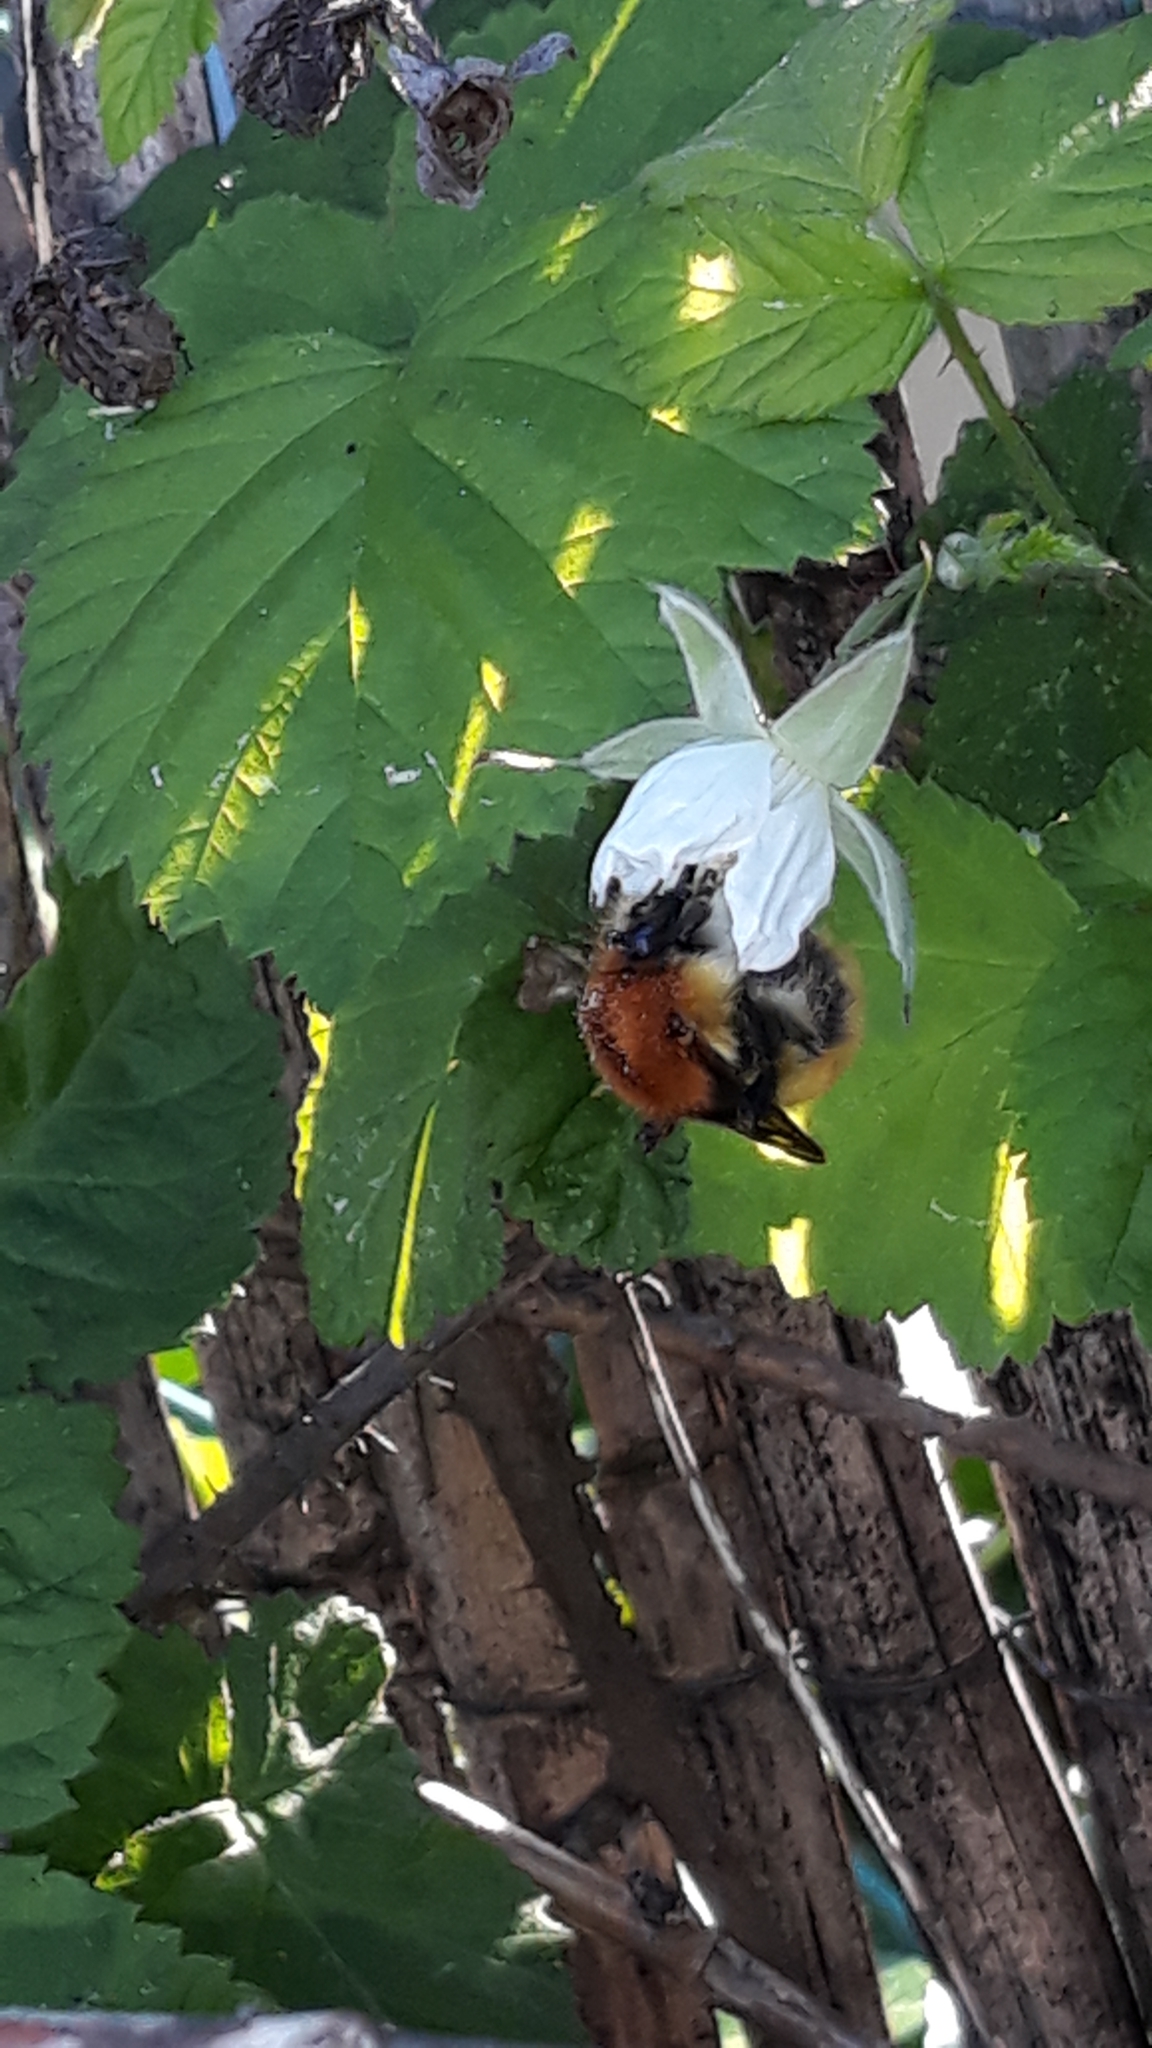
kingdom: Animalia
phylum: Arthropoda
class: Insecta
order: Hymenoptera
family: Apidae
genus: Bombus
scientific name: Bombus pascuorum
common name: Common carder bee
